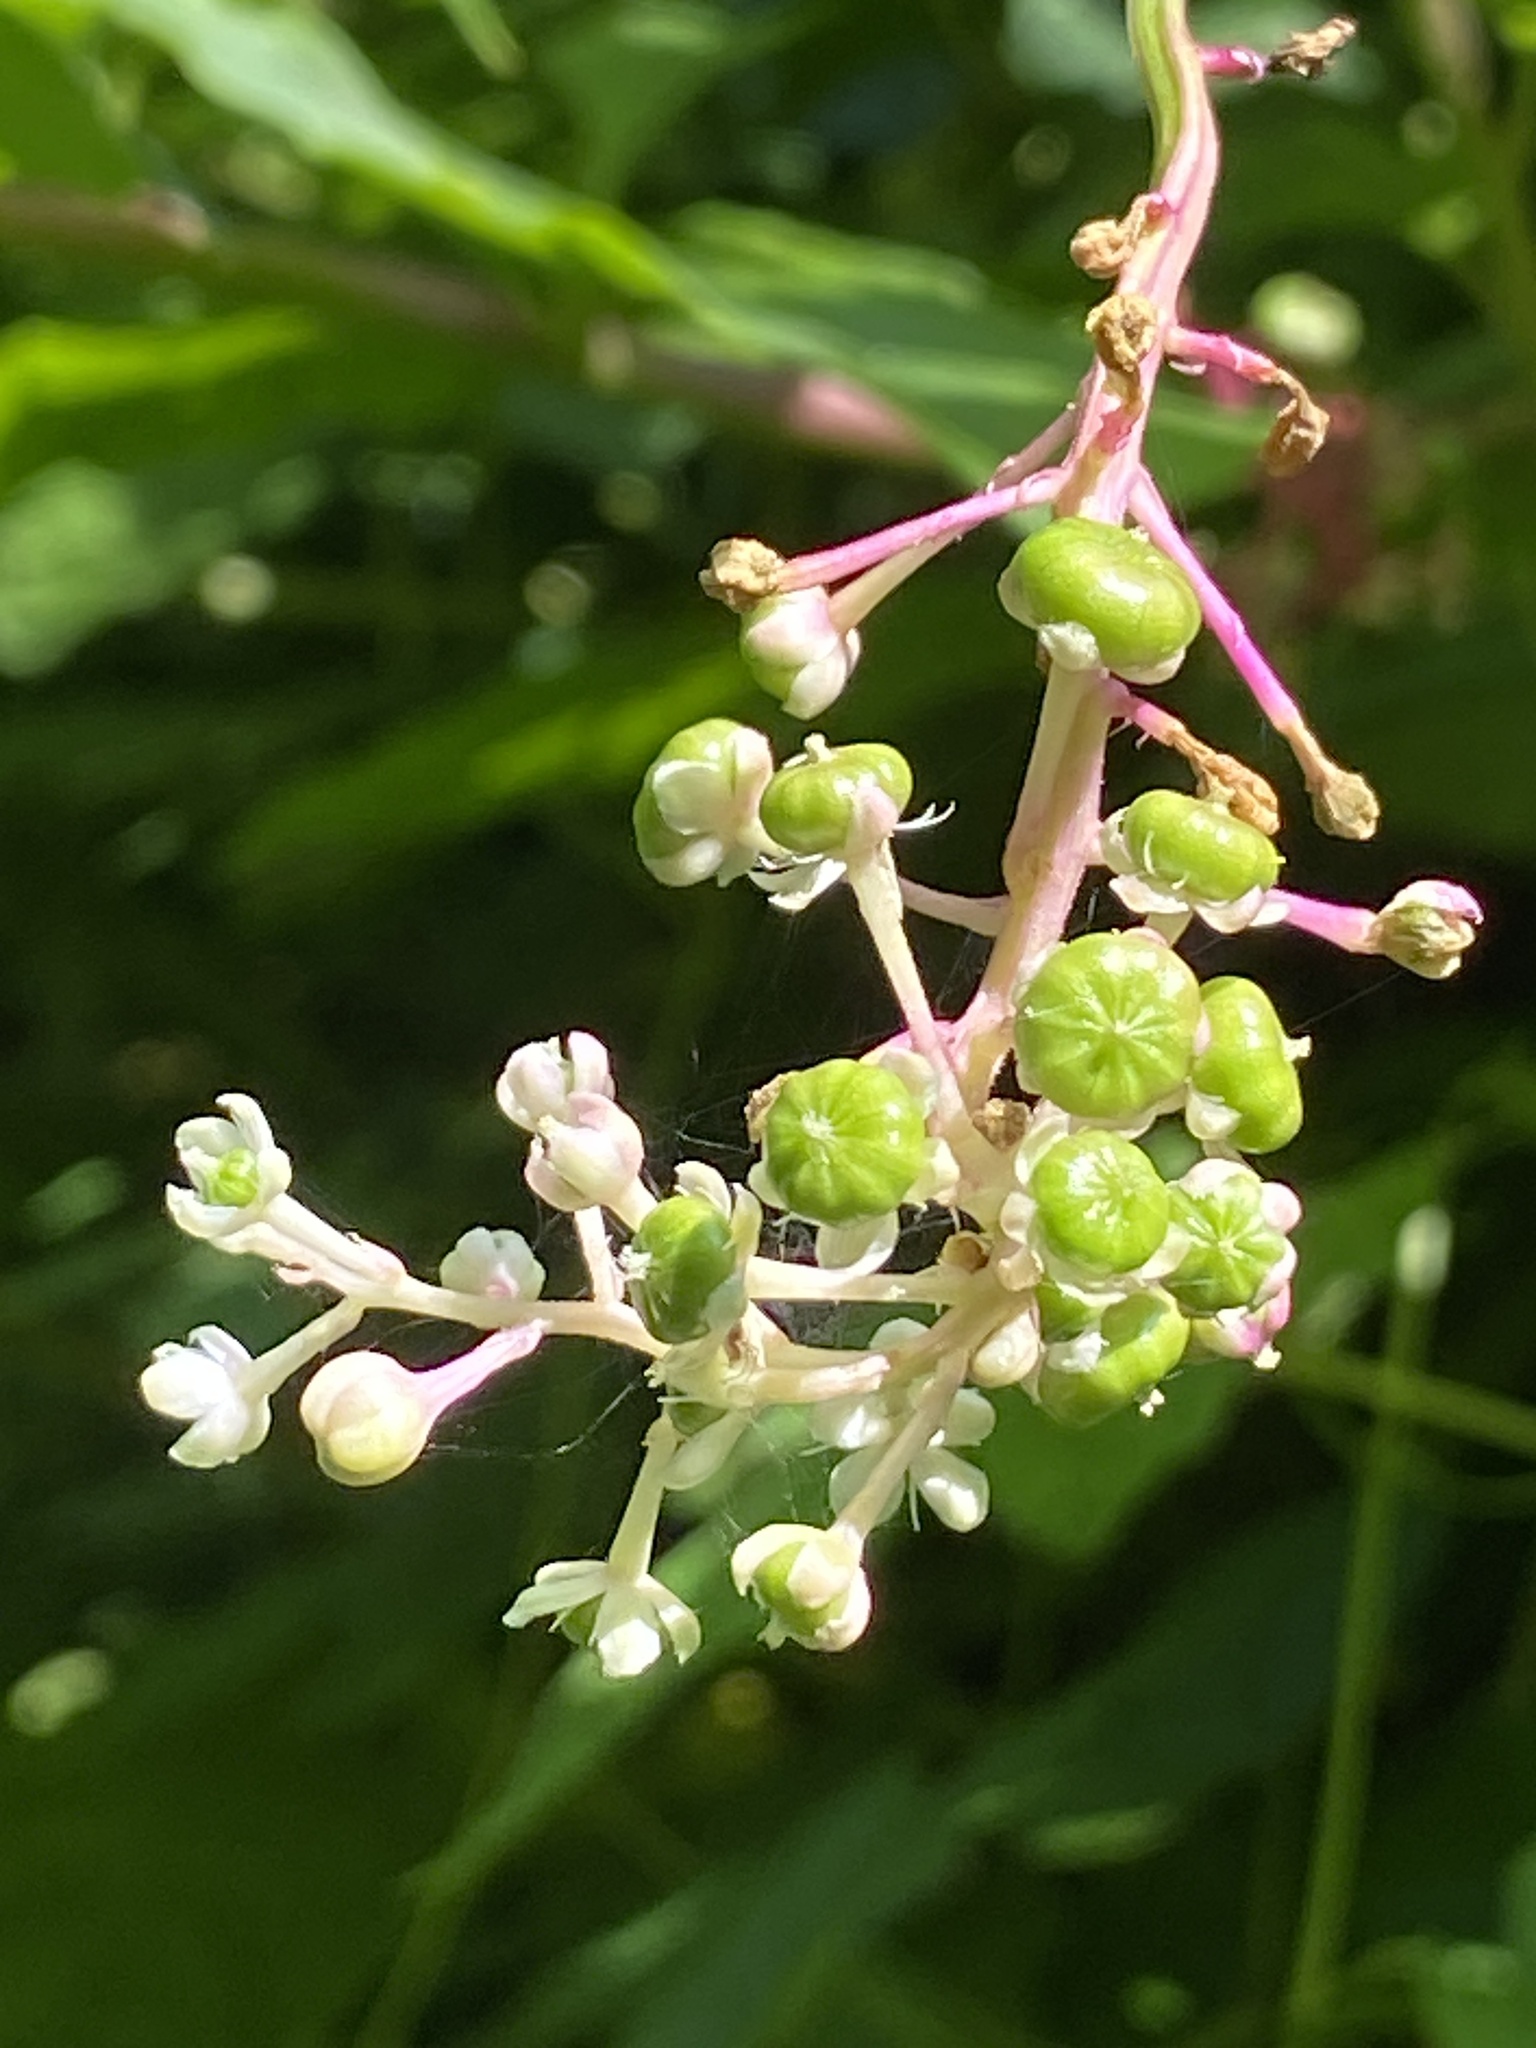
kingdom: Plantae
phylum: Tracheophyta
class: Magnoliopsida
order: Caryophyllales
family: Phytolaccaceae
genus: Phytolacca
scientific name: Phytolacca americana
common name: American pokeweed
